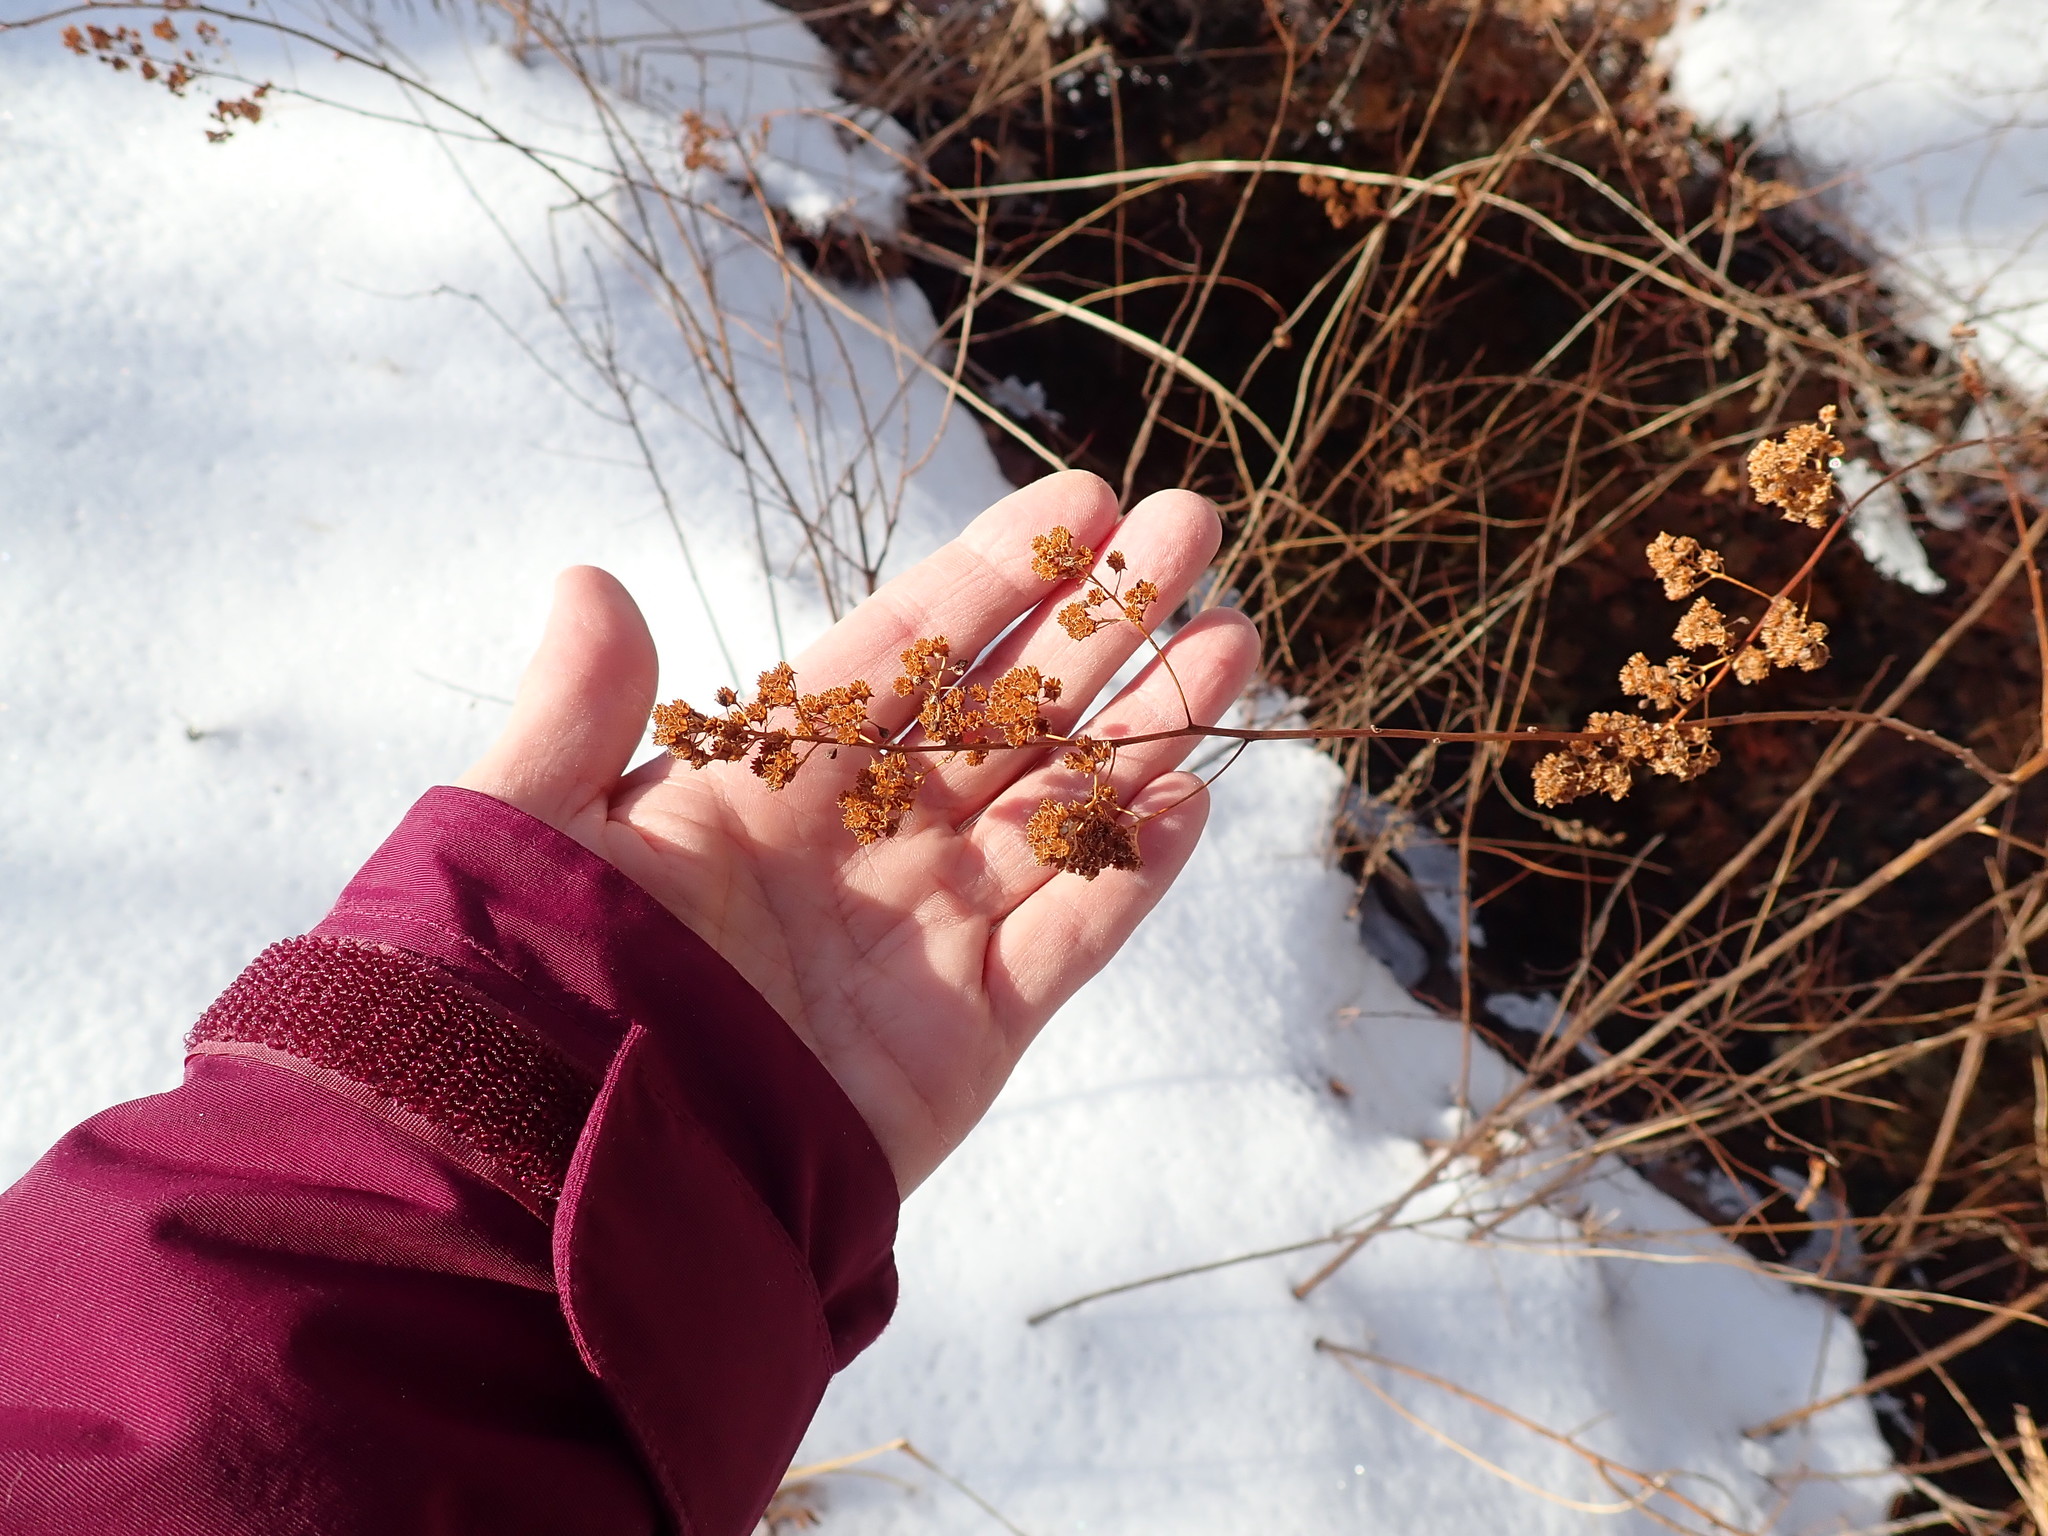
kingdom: Plantae
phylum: Tracheophyta
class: Magnoliopsida
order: Rosales
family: Rosaceae
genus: Spiraea
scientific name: Spiraea alba
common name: Pale bridewort
